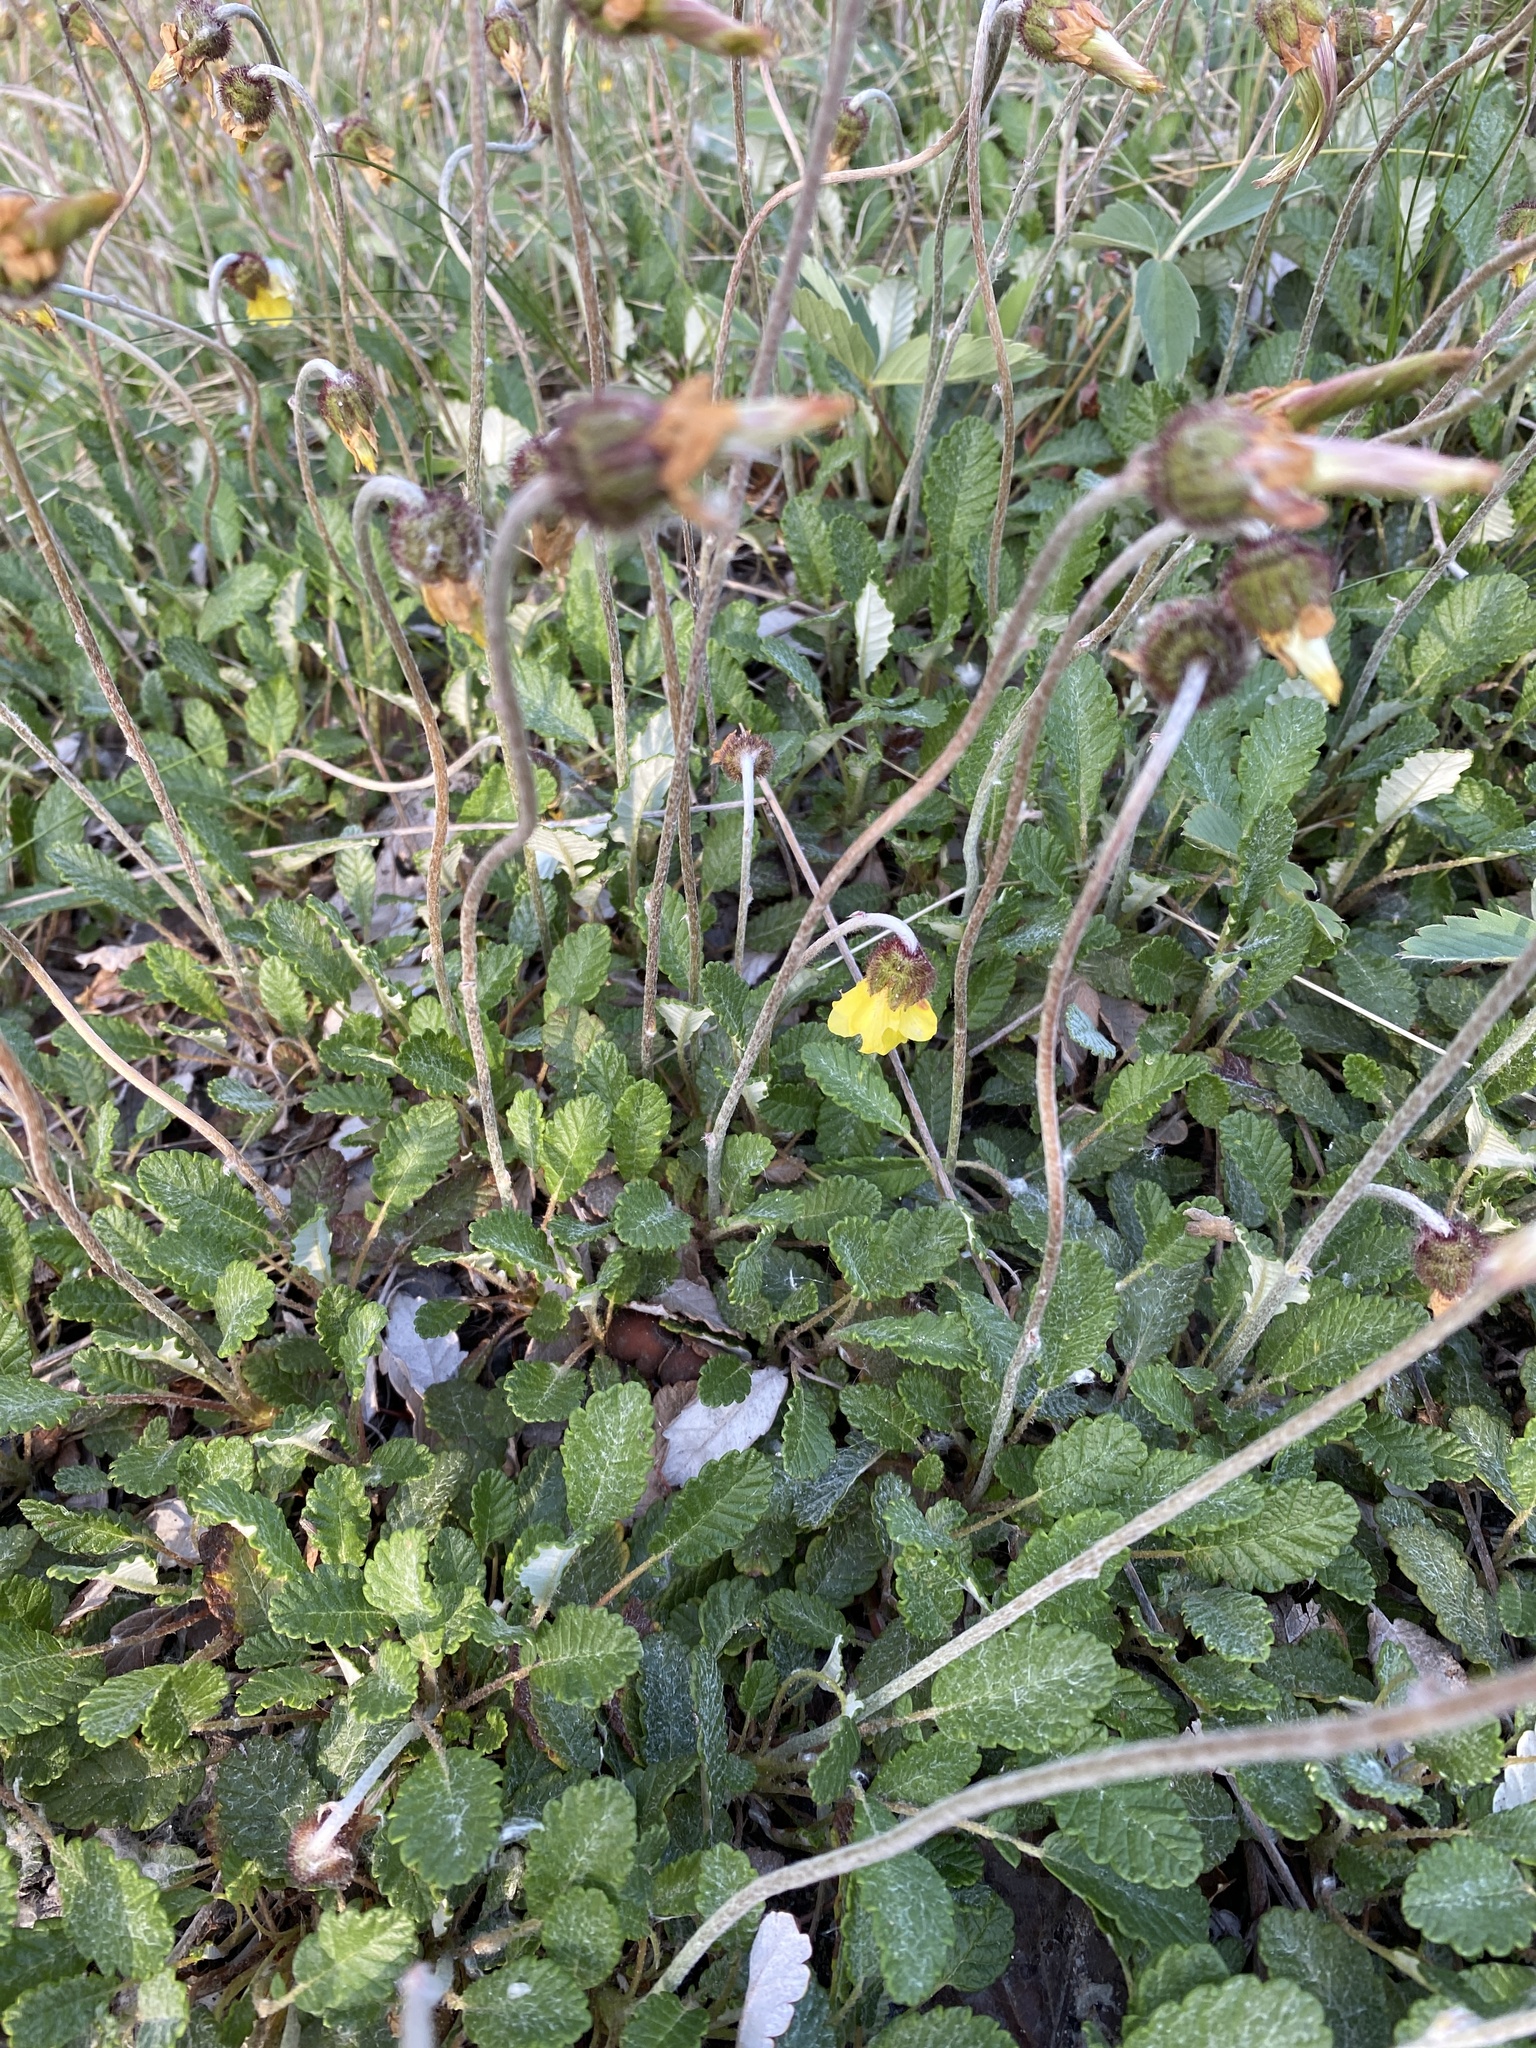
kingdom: Plantae
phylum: Tracheophyta
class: Magnoliopsida
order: Rosales
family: Rosaceae
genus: Dryas
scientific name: Dryas drummondii
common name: Drummond's dryad
